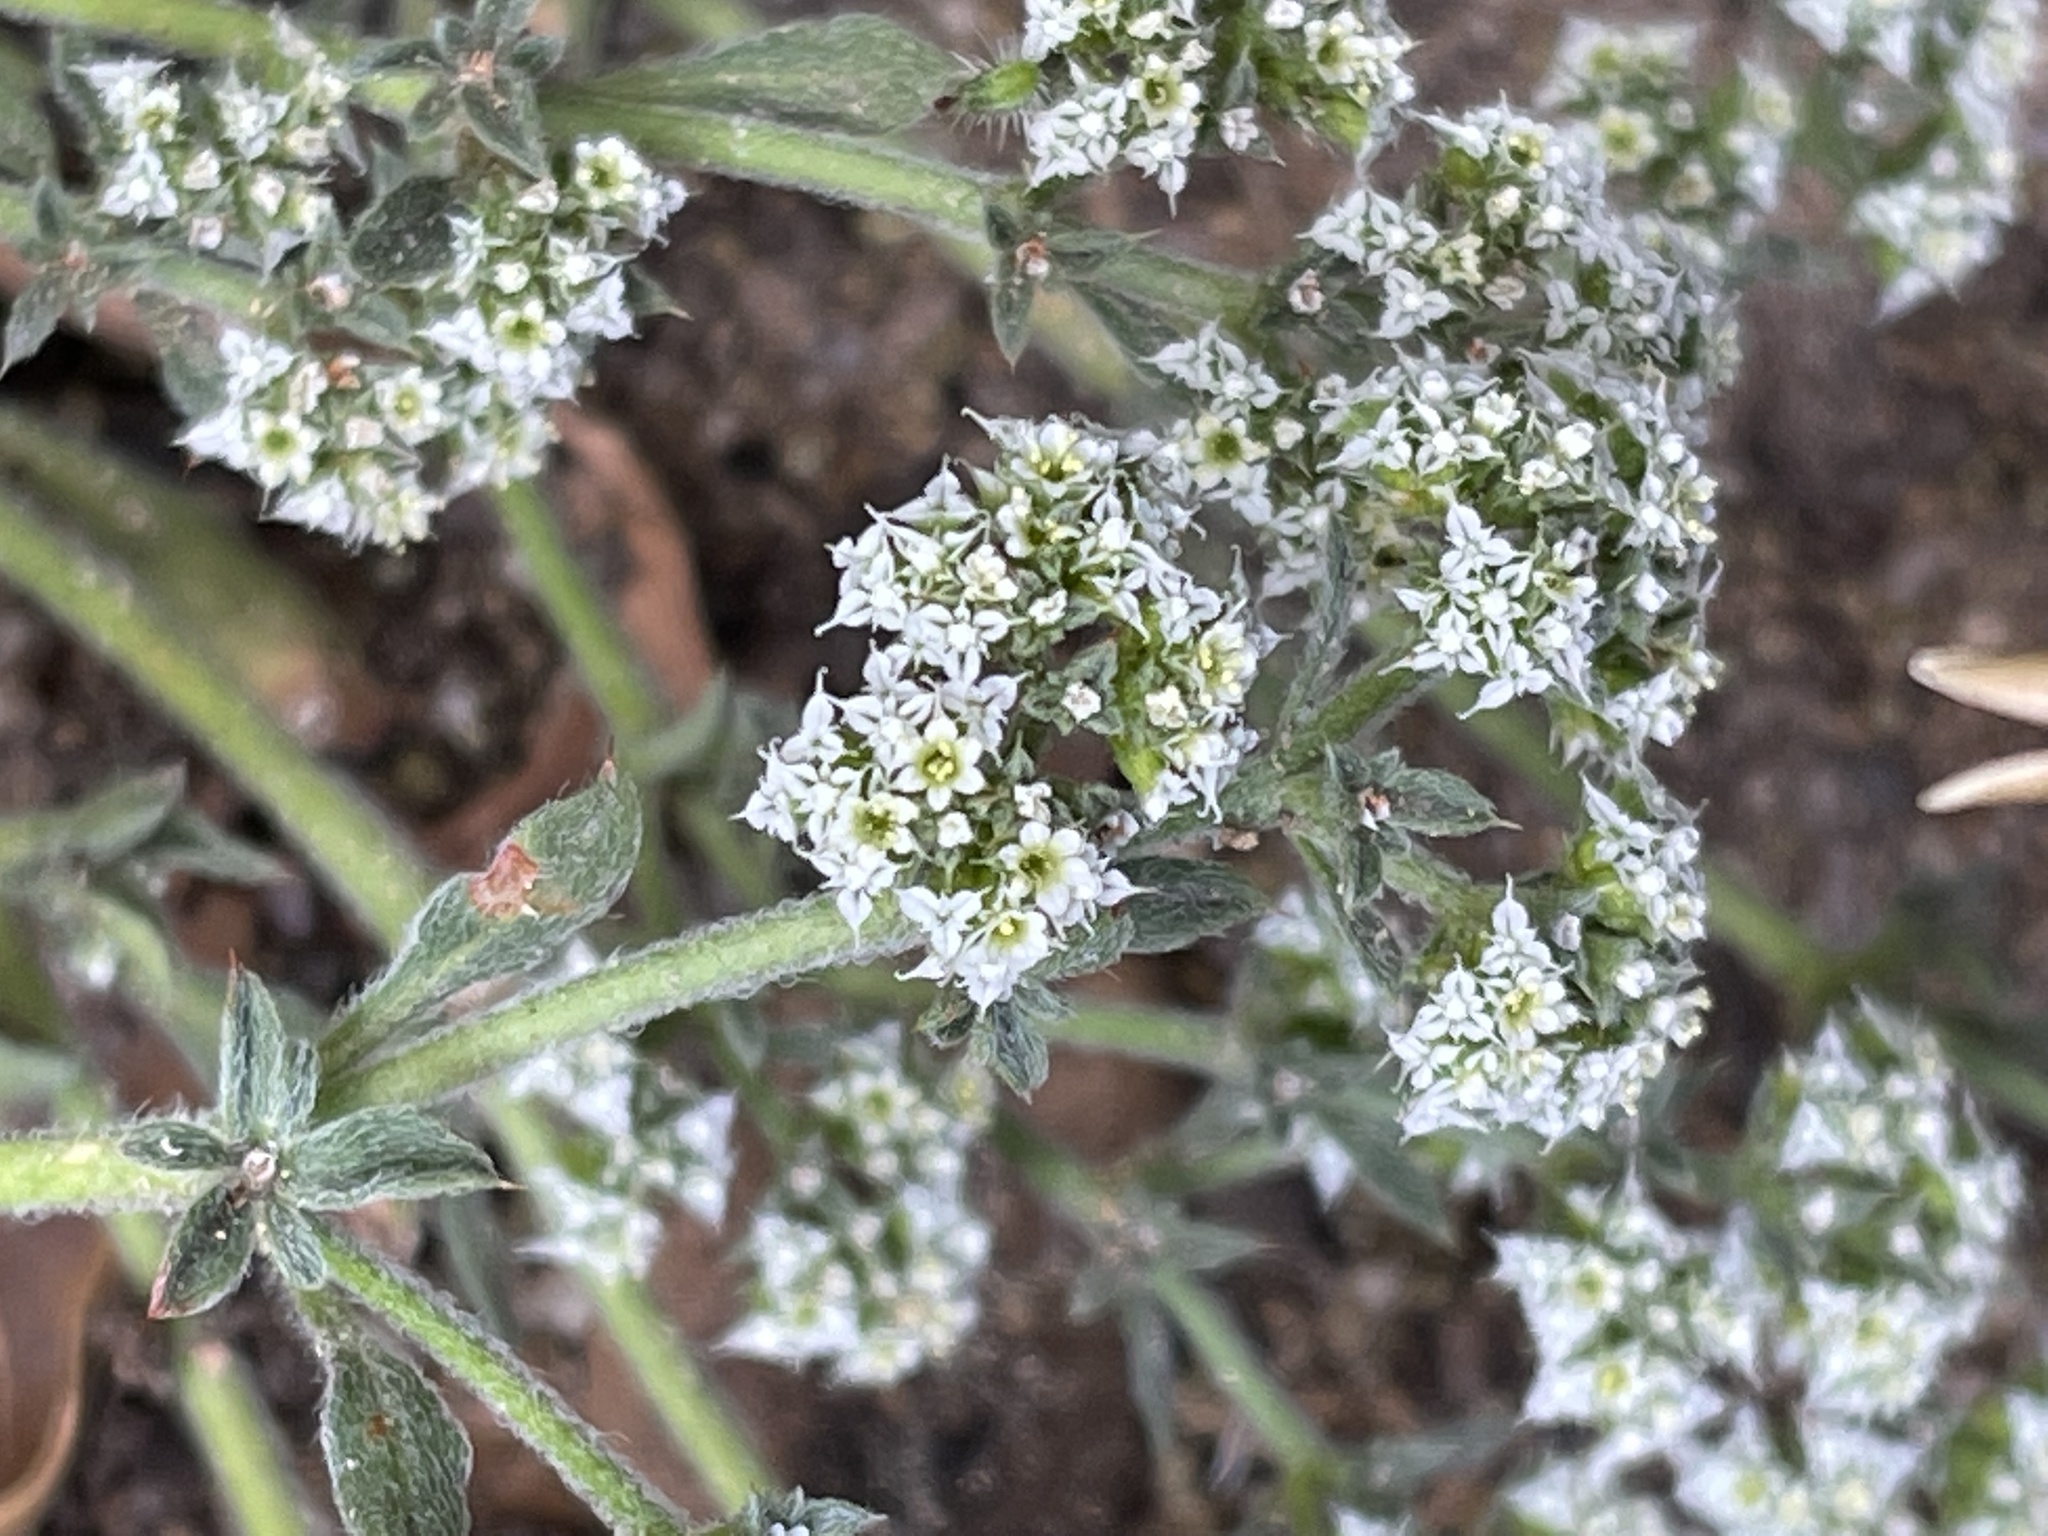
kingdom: Plantae
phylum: Tracheophyta
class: Magnoliopsida
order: Caryophyllales
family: Polygonaceae
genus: Chorizanthe
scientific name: Chorizanthe diffusa
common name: Diffuse spineflower
